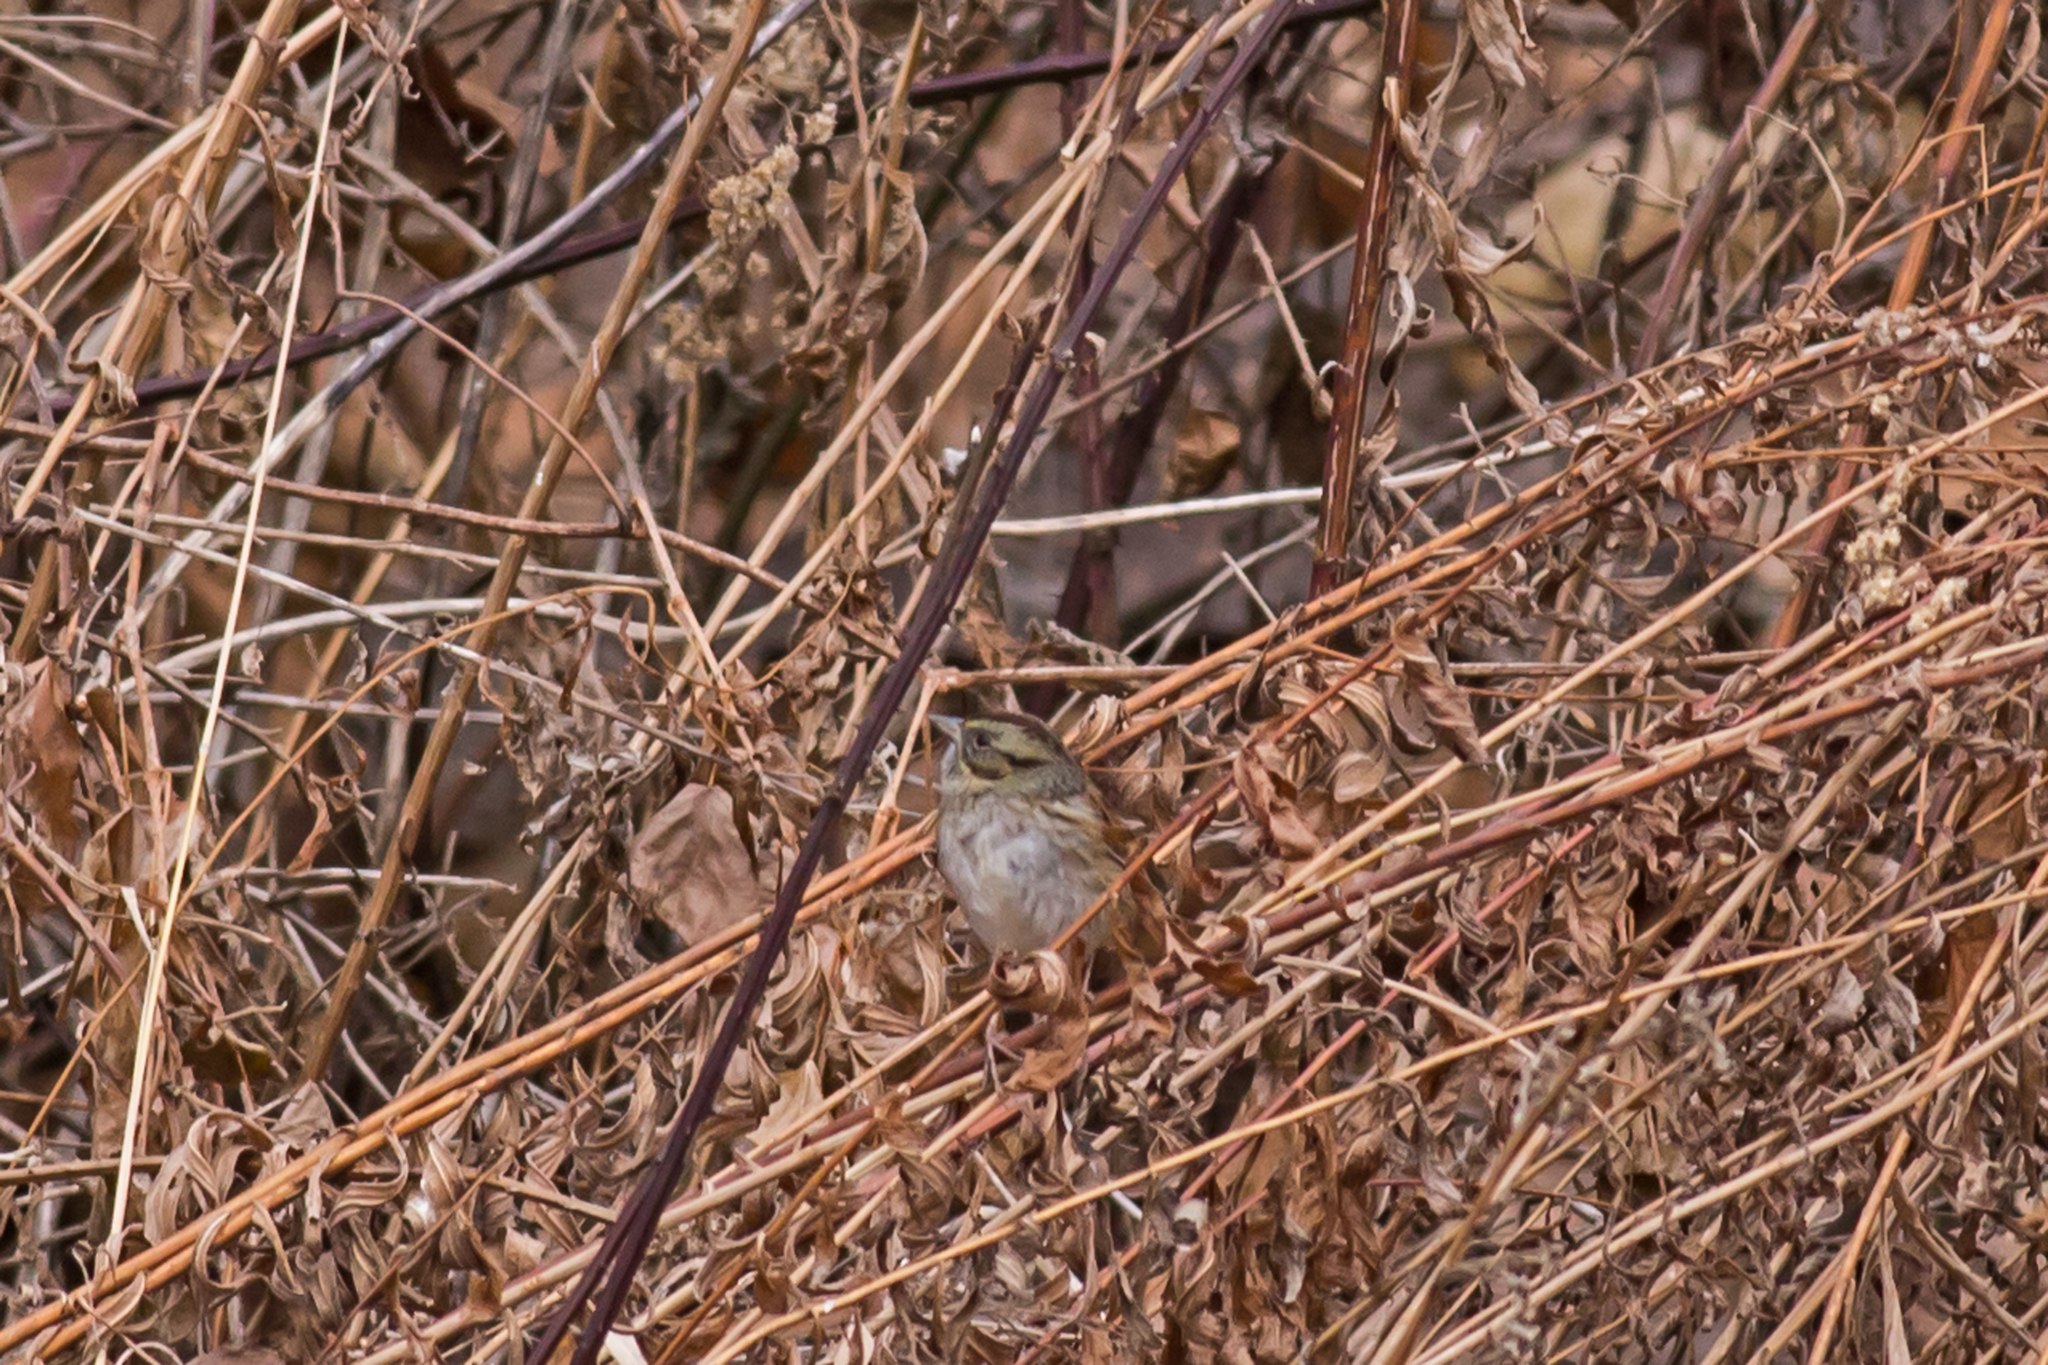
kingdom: Animalia
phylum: Chordata
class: Aves
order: Passeriformes
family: Passerellidae
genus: Melospiza
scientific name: Melospiza georgiana
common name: Swamp sparrow
